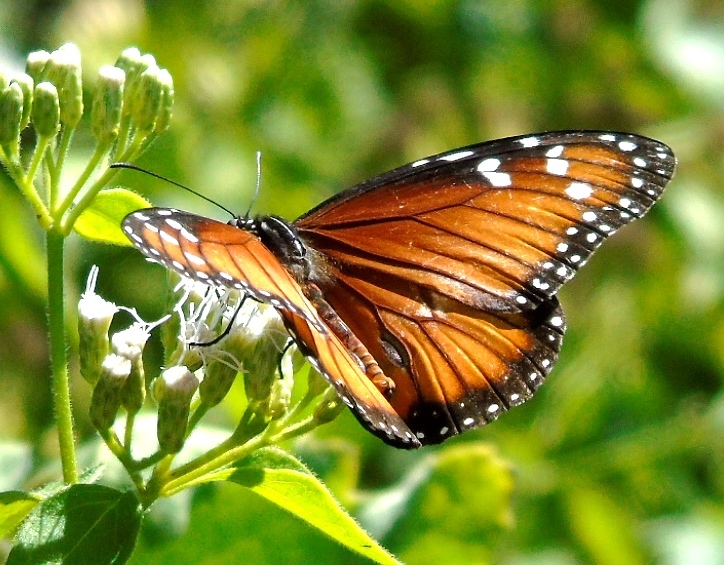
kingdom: Animalia
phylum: Arthropoda
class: Insecta
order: Lepidoptera
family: Nymphalidae
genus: Danaus
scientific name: Danaus eresimus
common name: Soldier
